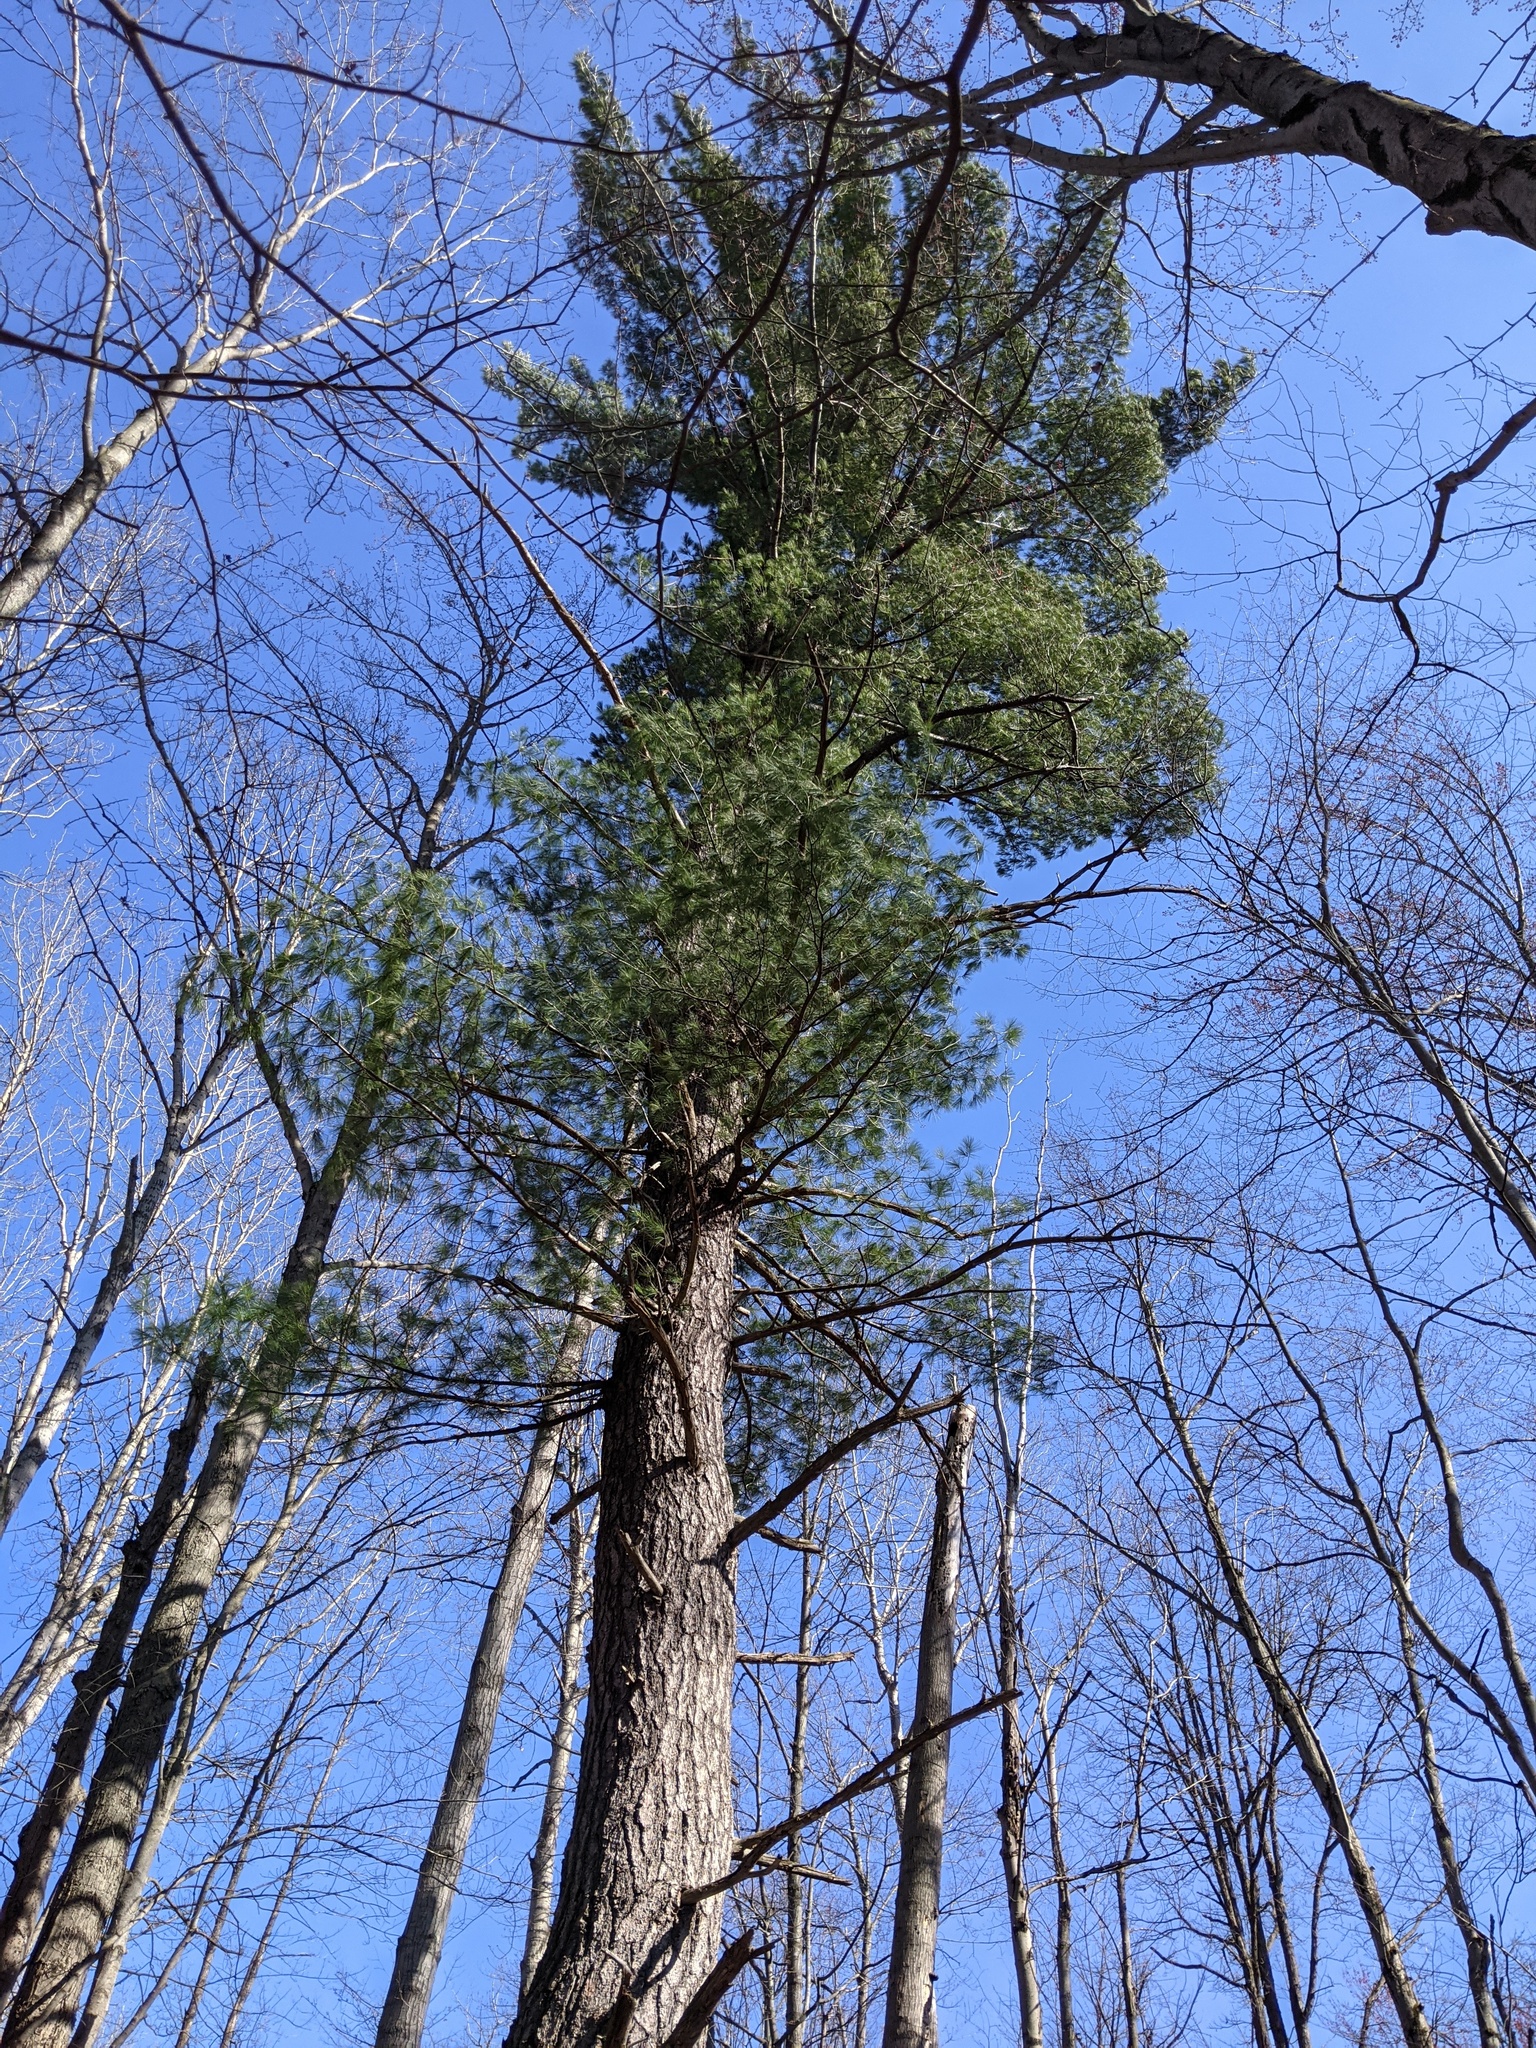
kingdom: Plantae
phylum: Tracheophyta
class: Pinopsida
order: Pinales
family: Pinaceae
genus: Pinus
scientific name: Pinus strobus
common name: Weymouth pine
